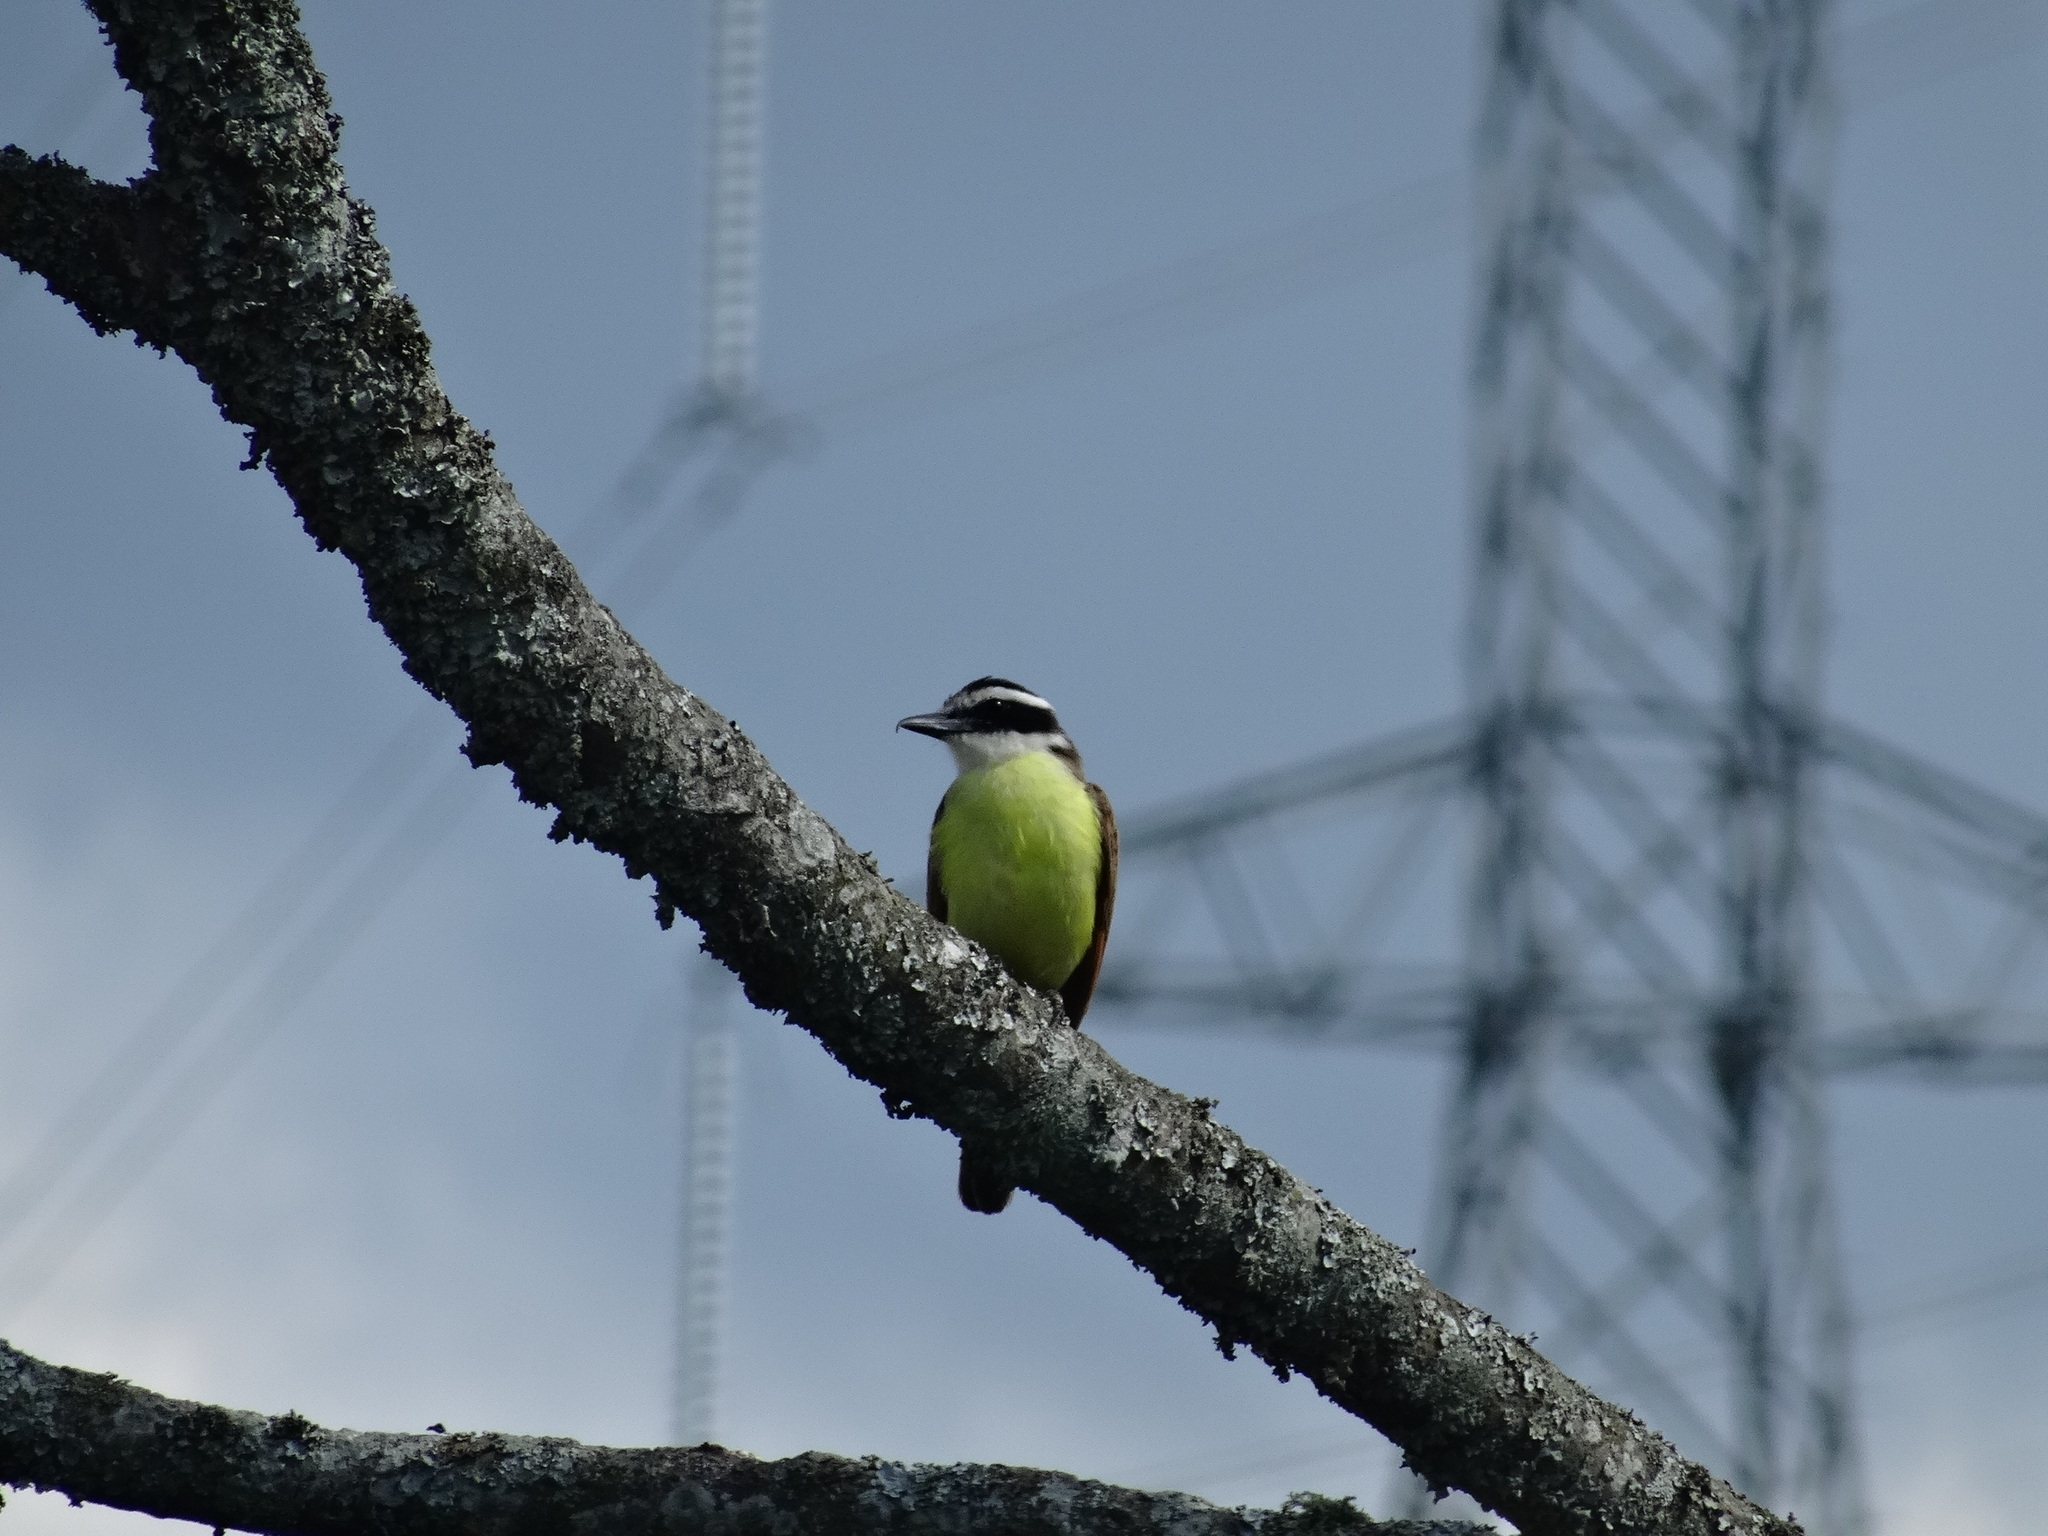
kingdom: Animalia
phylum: Chordata
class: Aves
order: Passeriformes
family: Tyrannidae
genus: Pitangus
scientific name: Pitangus sulphuratus
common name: Great kiskadee
